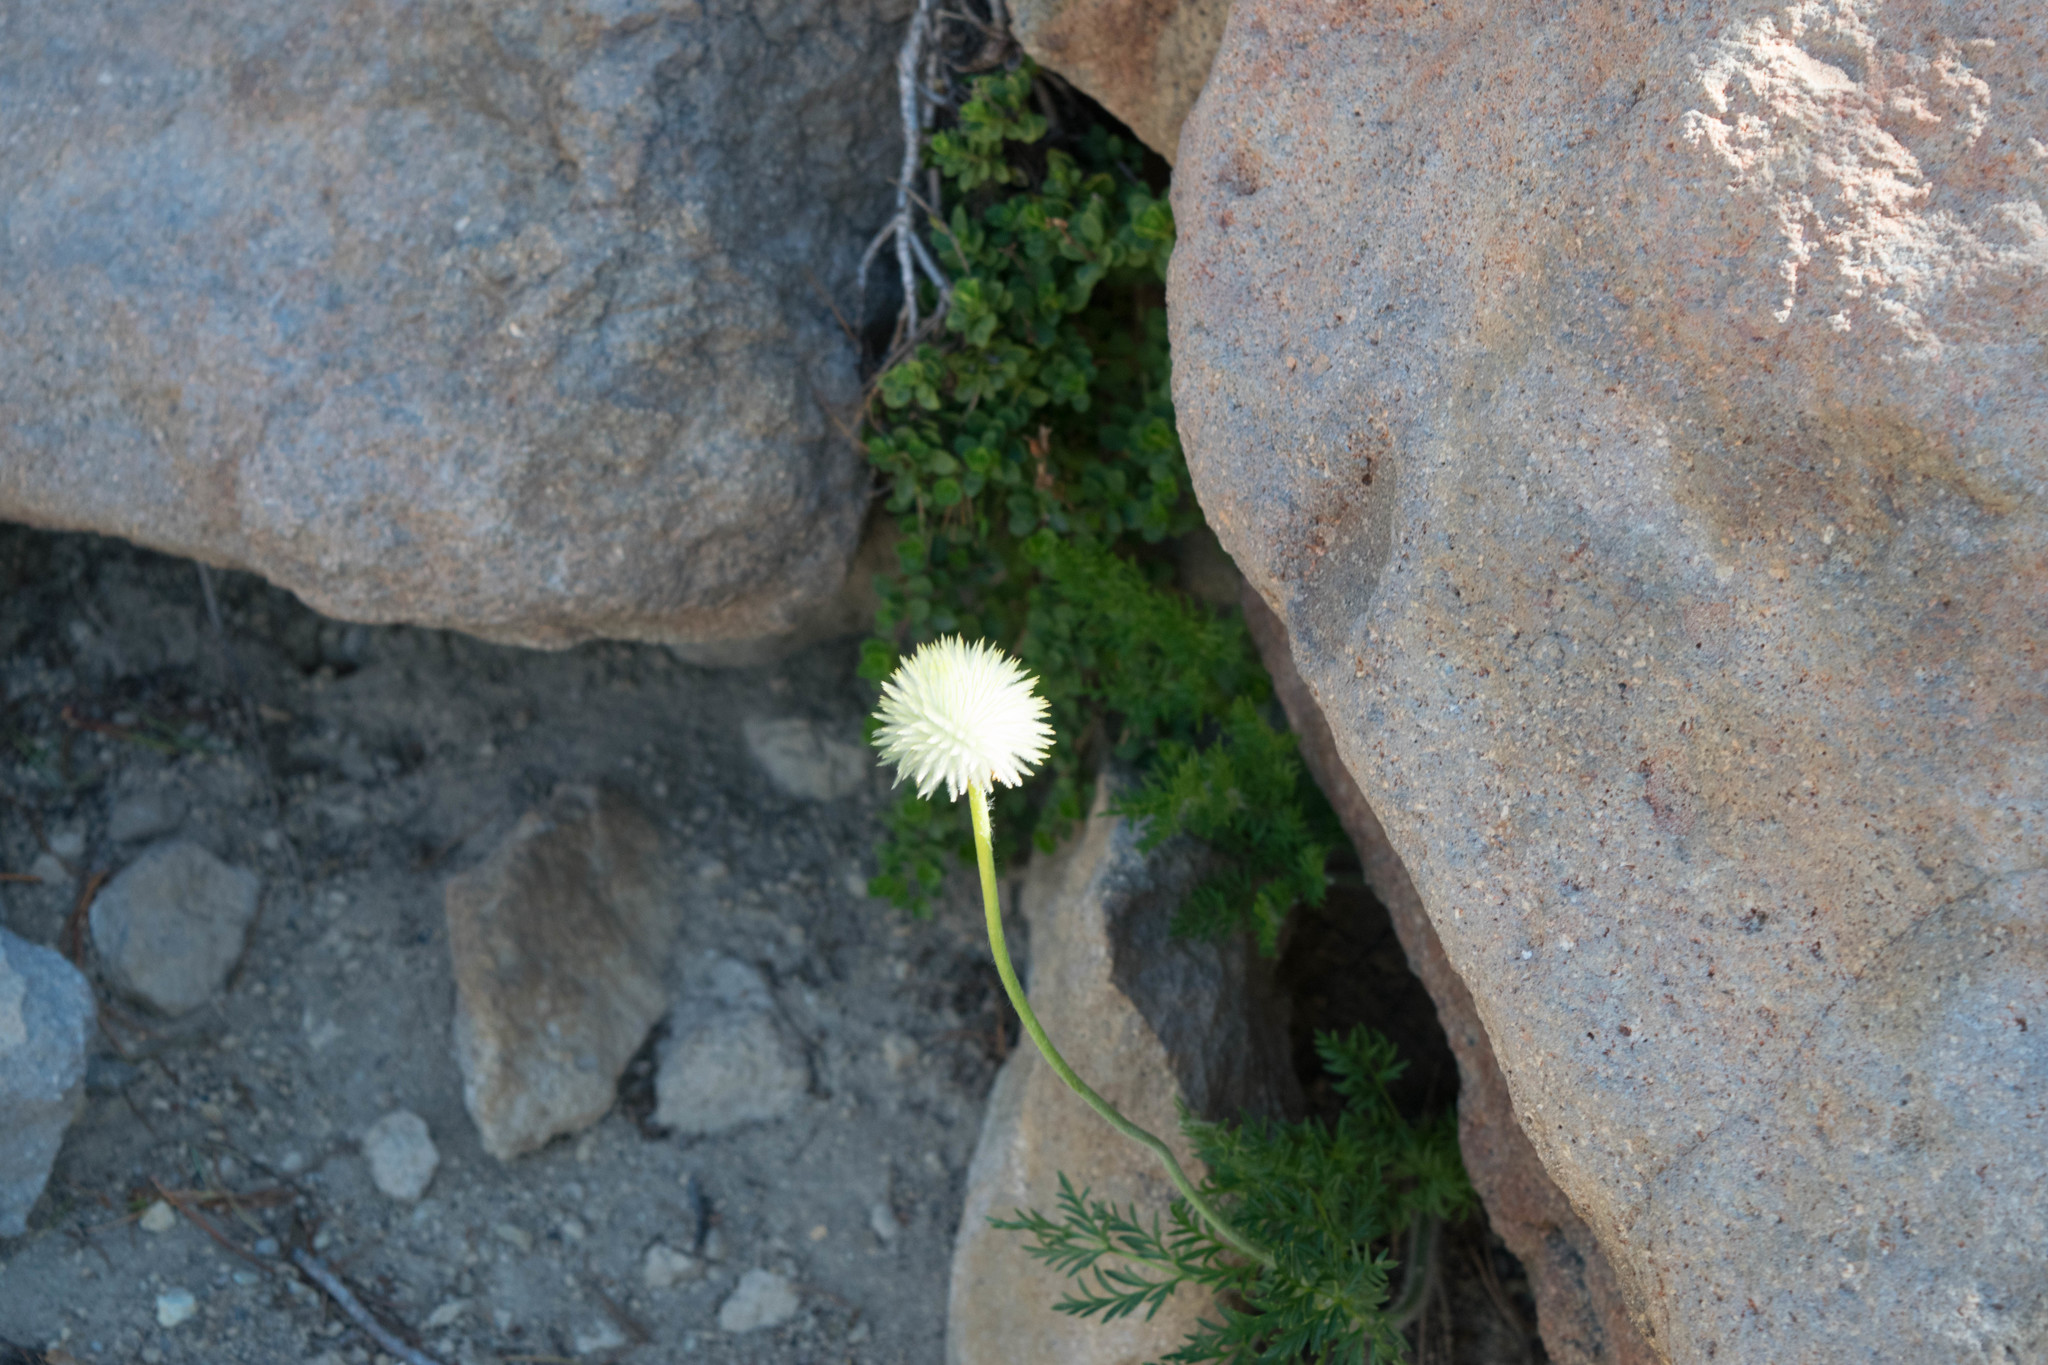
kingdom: Plantae
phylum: Tracheophyta
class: Magnoliopsida
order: Ranunculales
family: Ranunculaceae
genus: Pulsatilla
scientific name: Pulsatilla occidentalis
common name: Mountain pasqueflower
